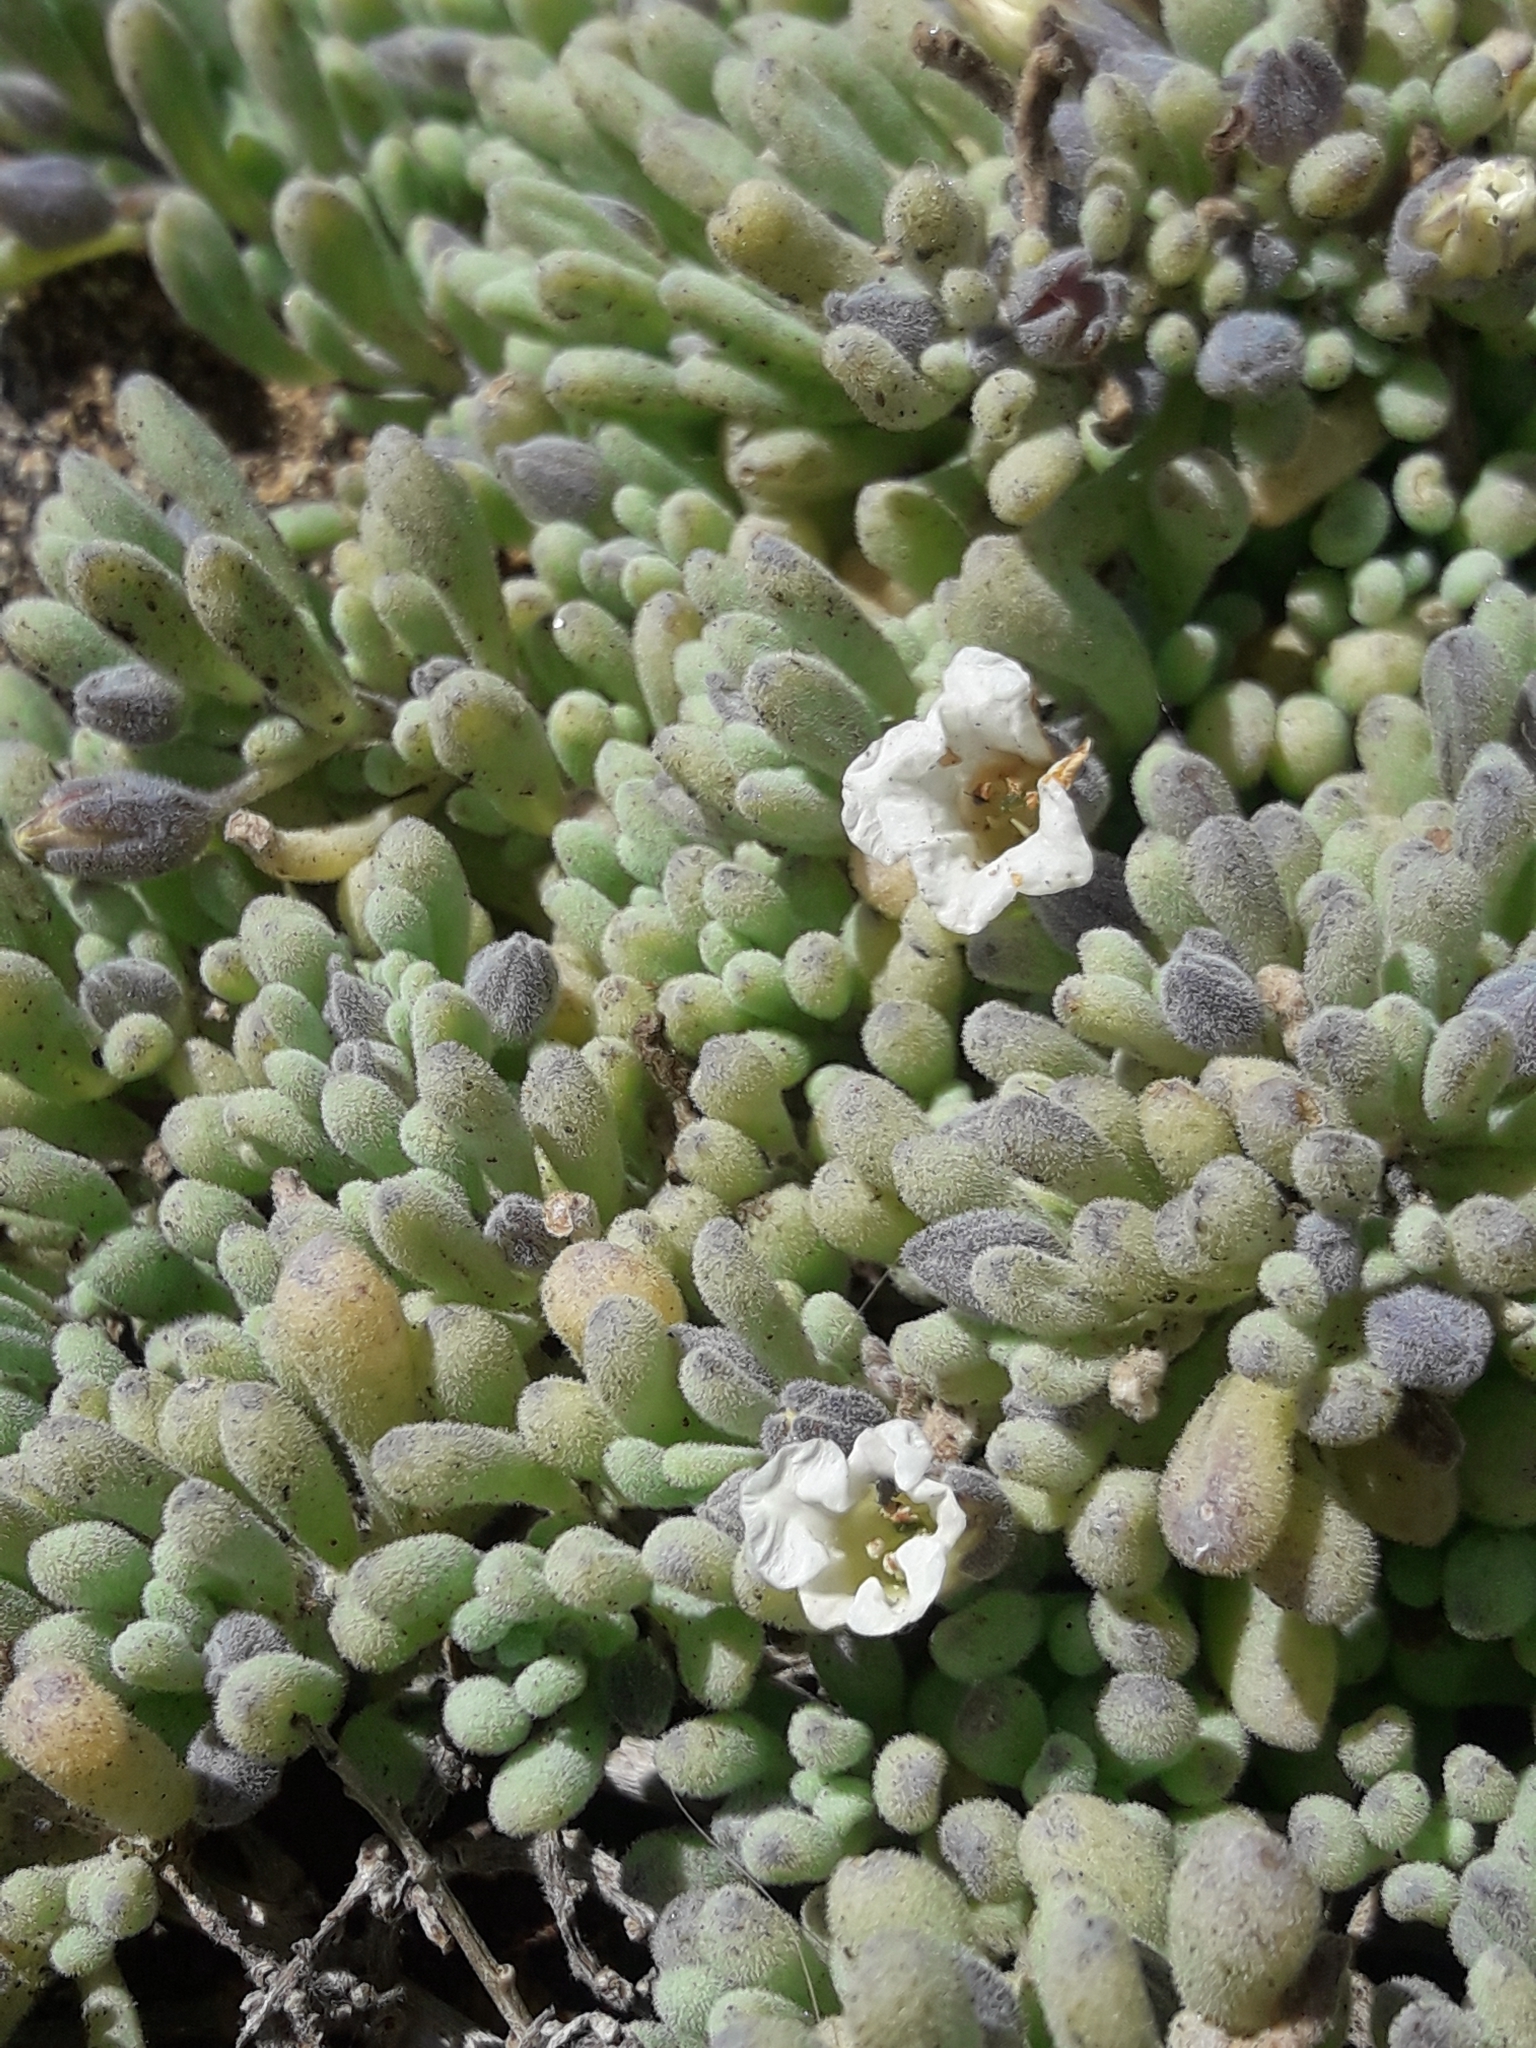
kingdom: Plantae
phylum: Tracheophyta
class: Magnoliopsida
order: Solanales
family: Solanaceae
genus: Nolana
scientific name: Nolana crassulifolia
